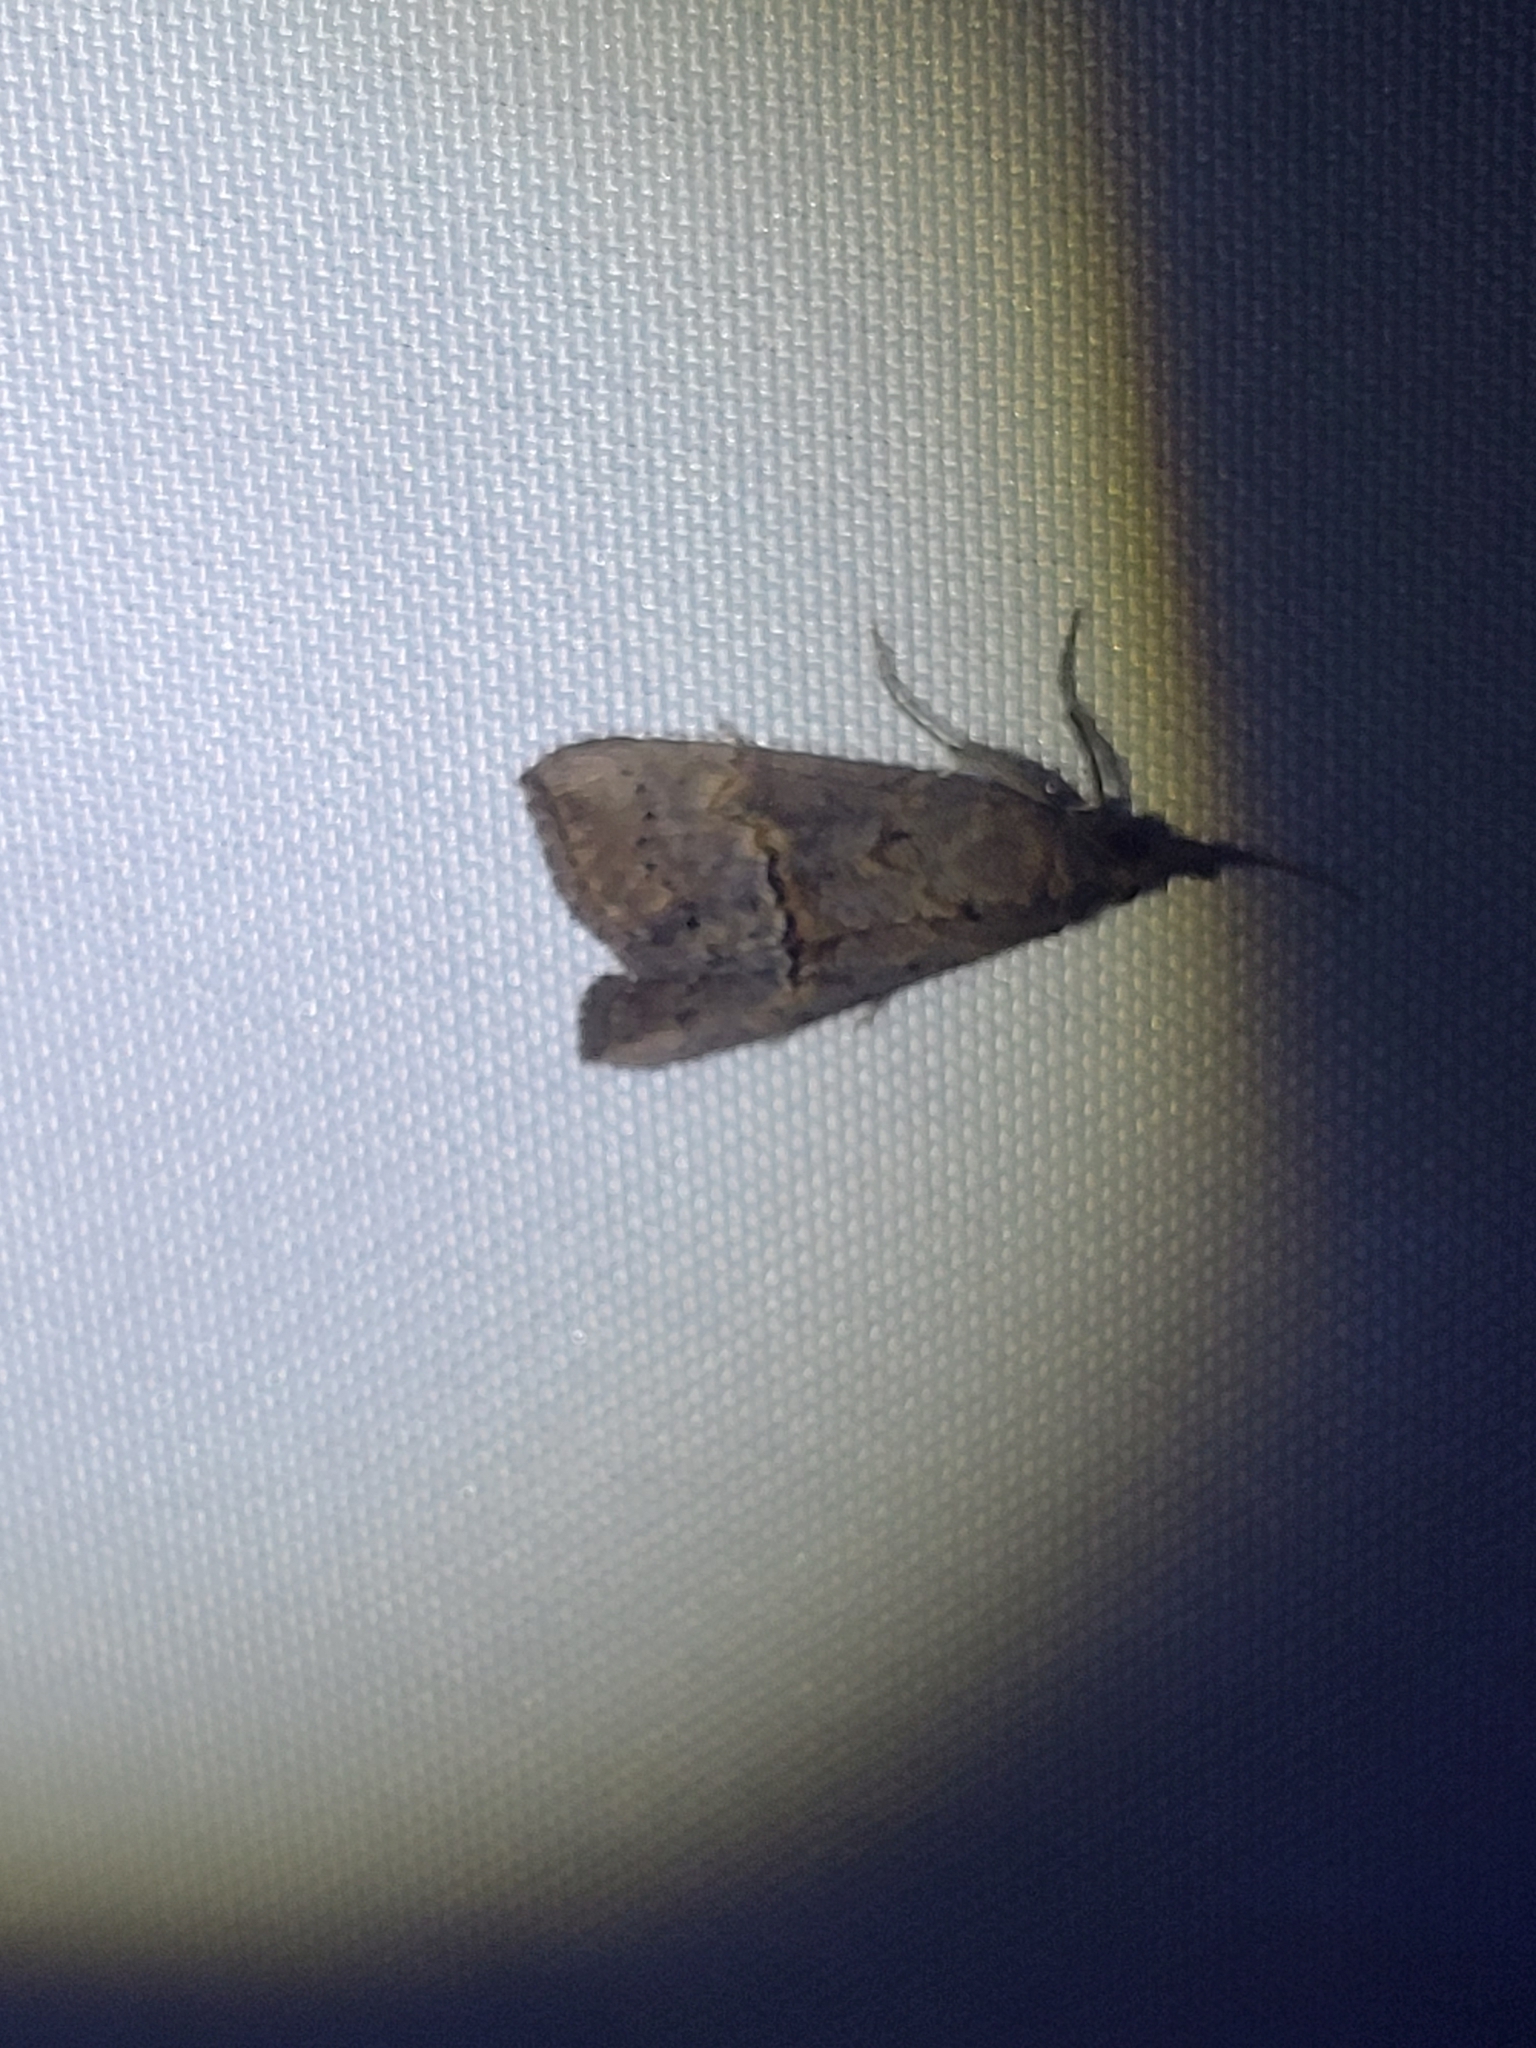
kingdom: Animalia
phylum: Arthropoda
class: Insecta
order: Lepidoptera
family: Erebidae
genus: Hypena
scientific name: Hypena scabra
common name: Green cloverworm
